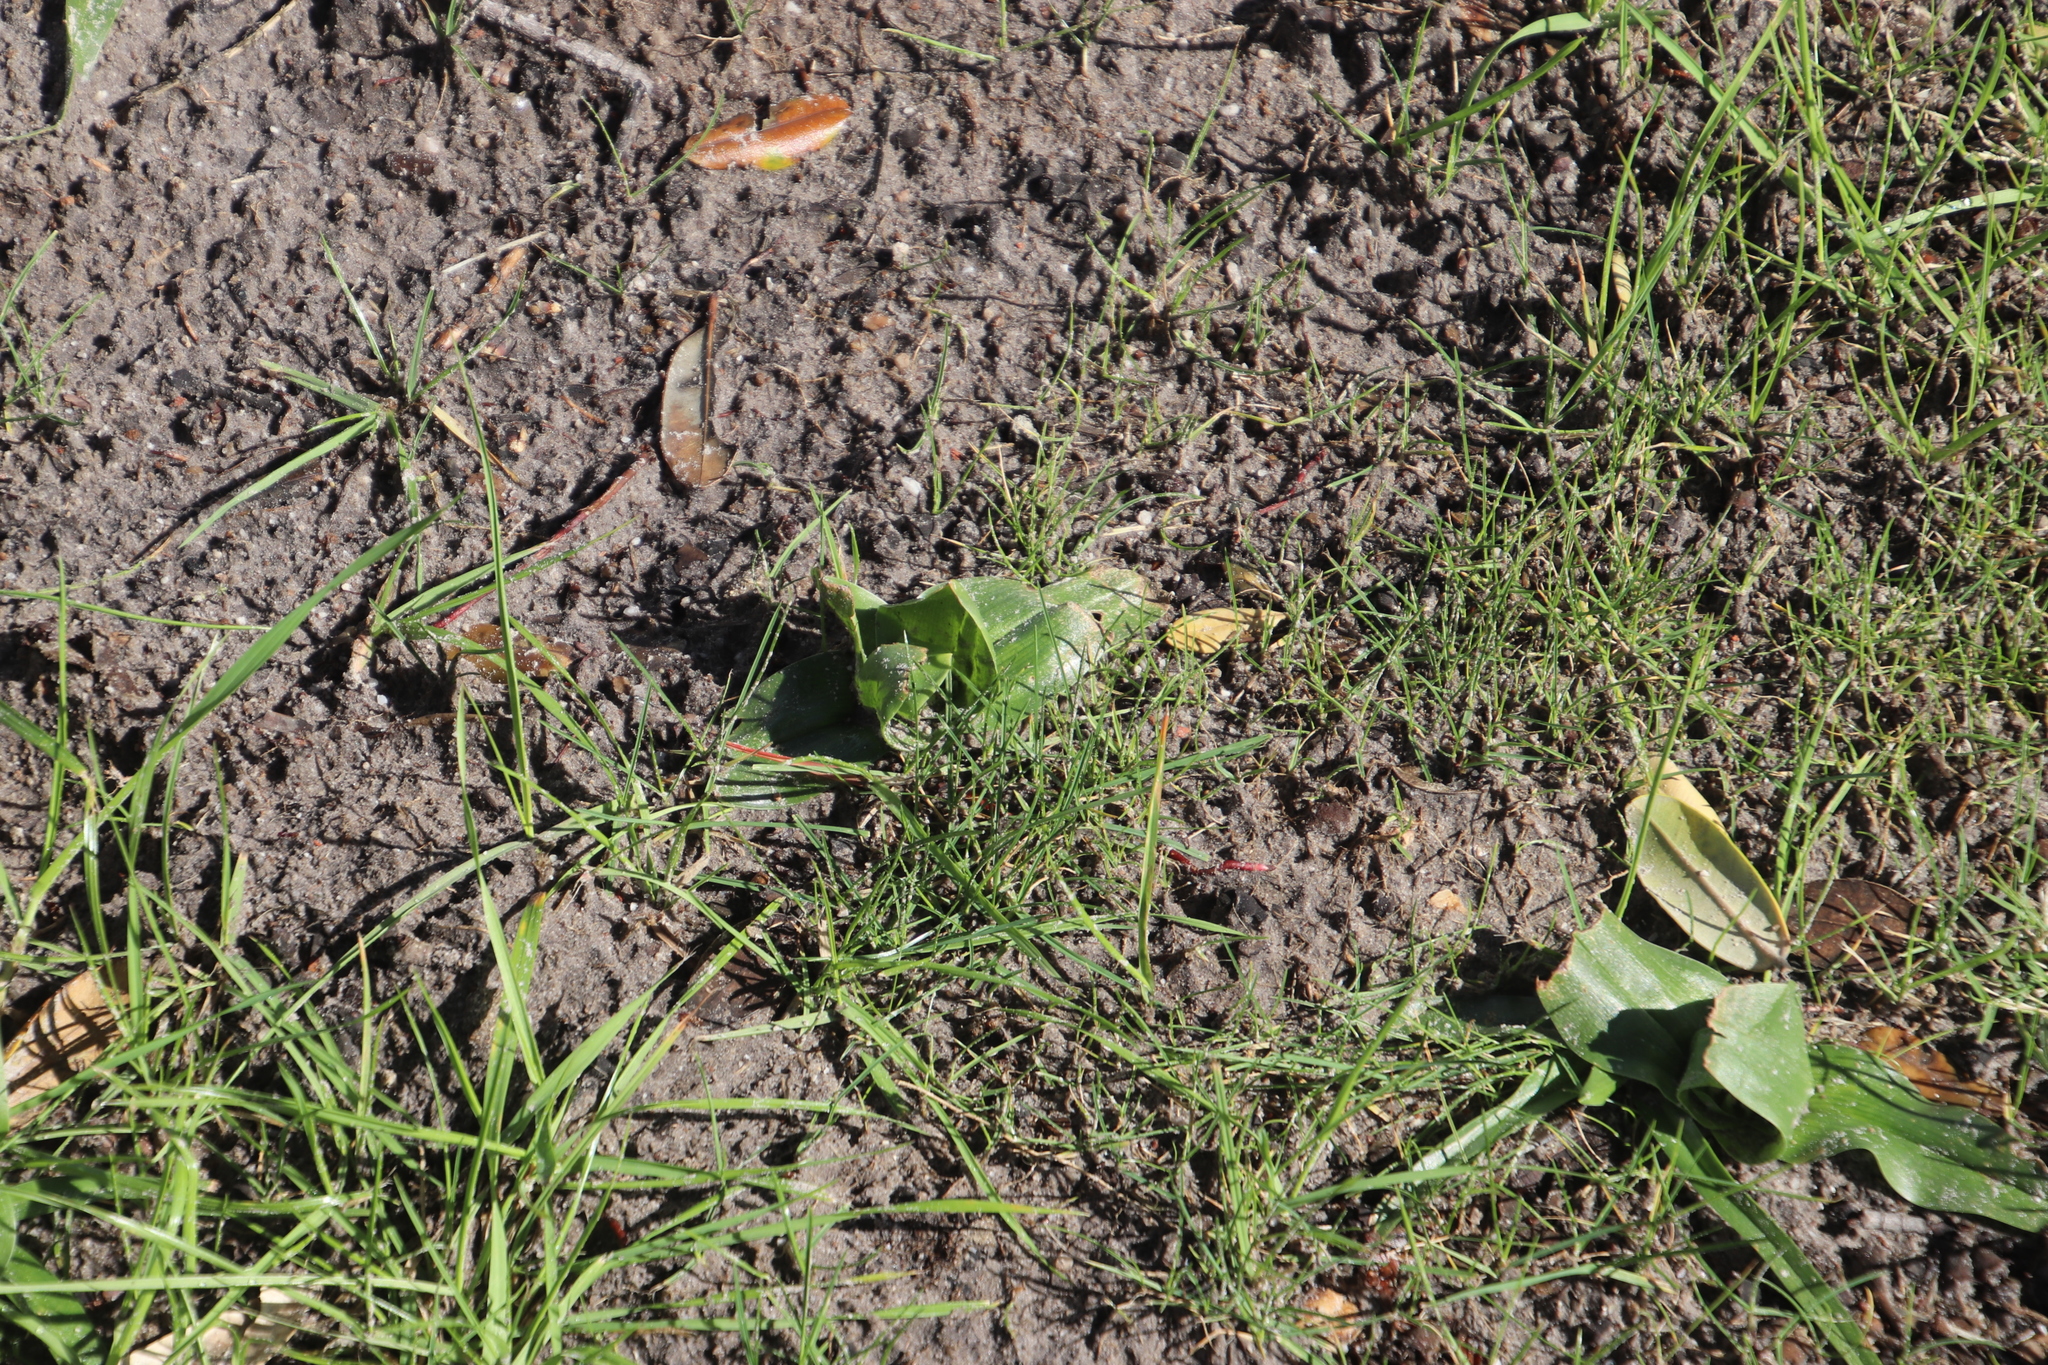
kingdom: Plantae
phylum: Tracheophyta
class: Liliopsida
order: Liliales
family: Colchicaceae
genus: Colchicum
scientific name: Colchicum eucomoides
